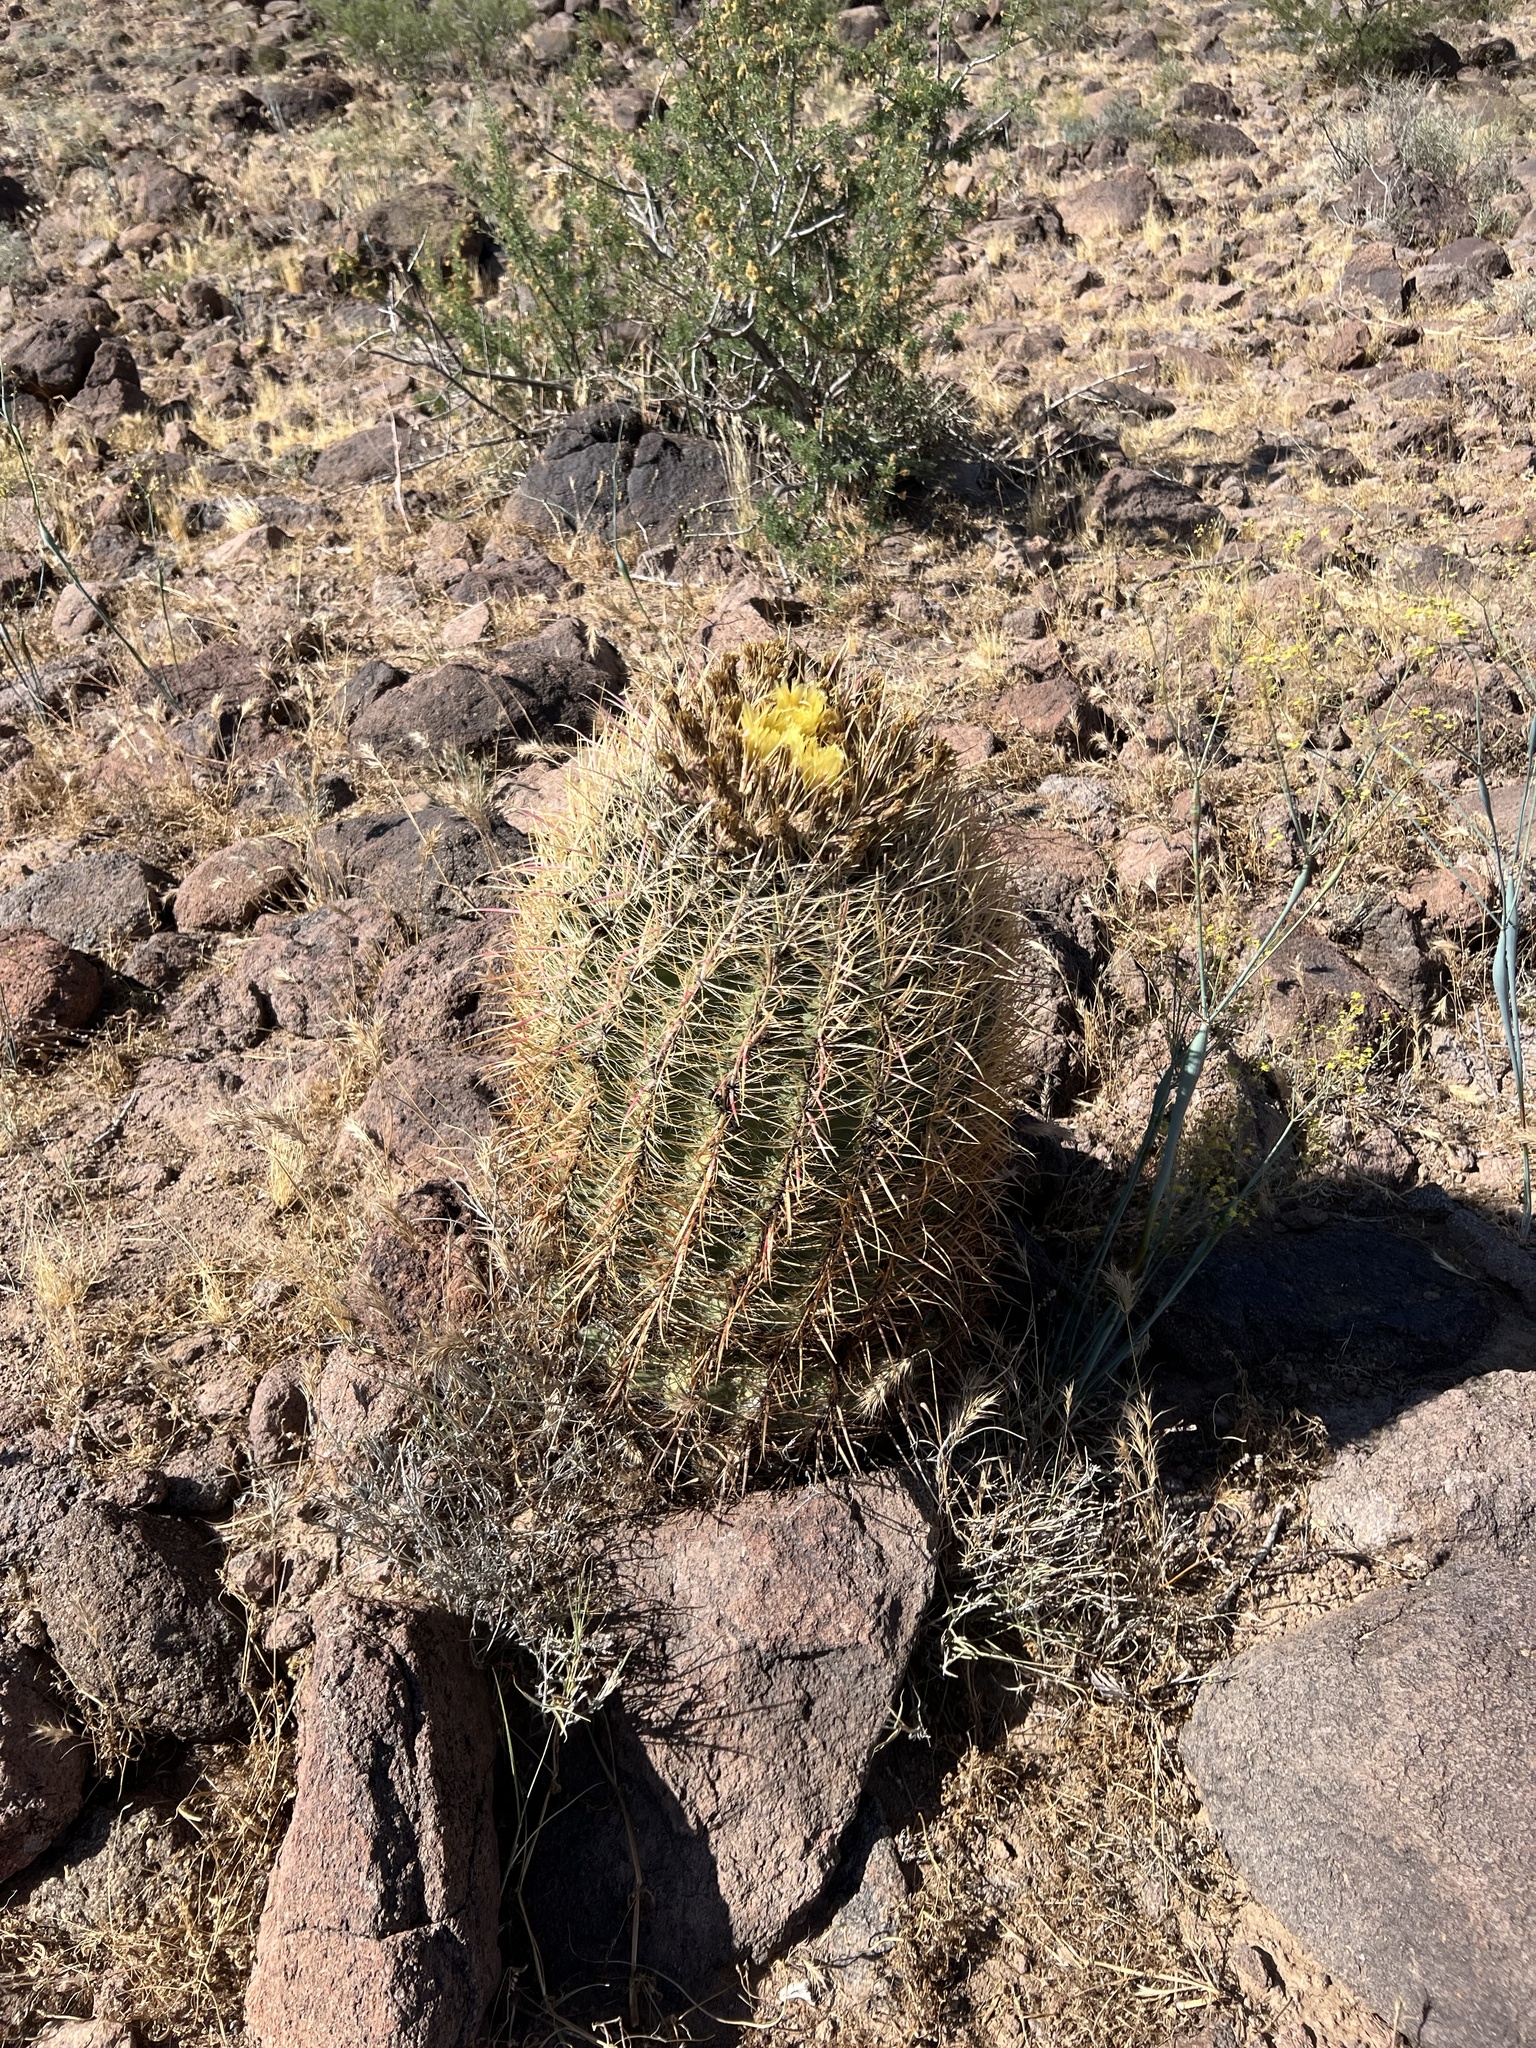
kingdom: Plantae
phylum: Tracheophyta
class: Magnoliopsida
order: Caryophyllales
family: Cactaceae
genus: Ferocactus
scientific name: Ferocactus cylindraceus
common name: California barrel cactus
